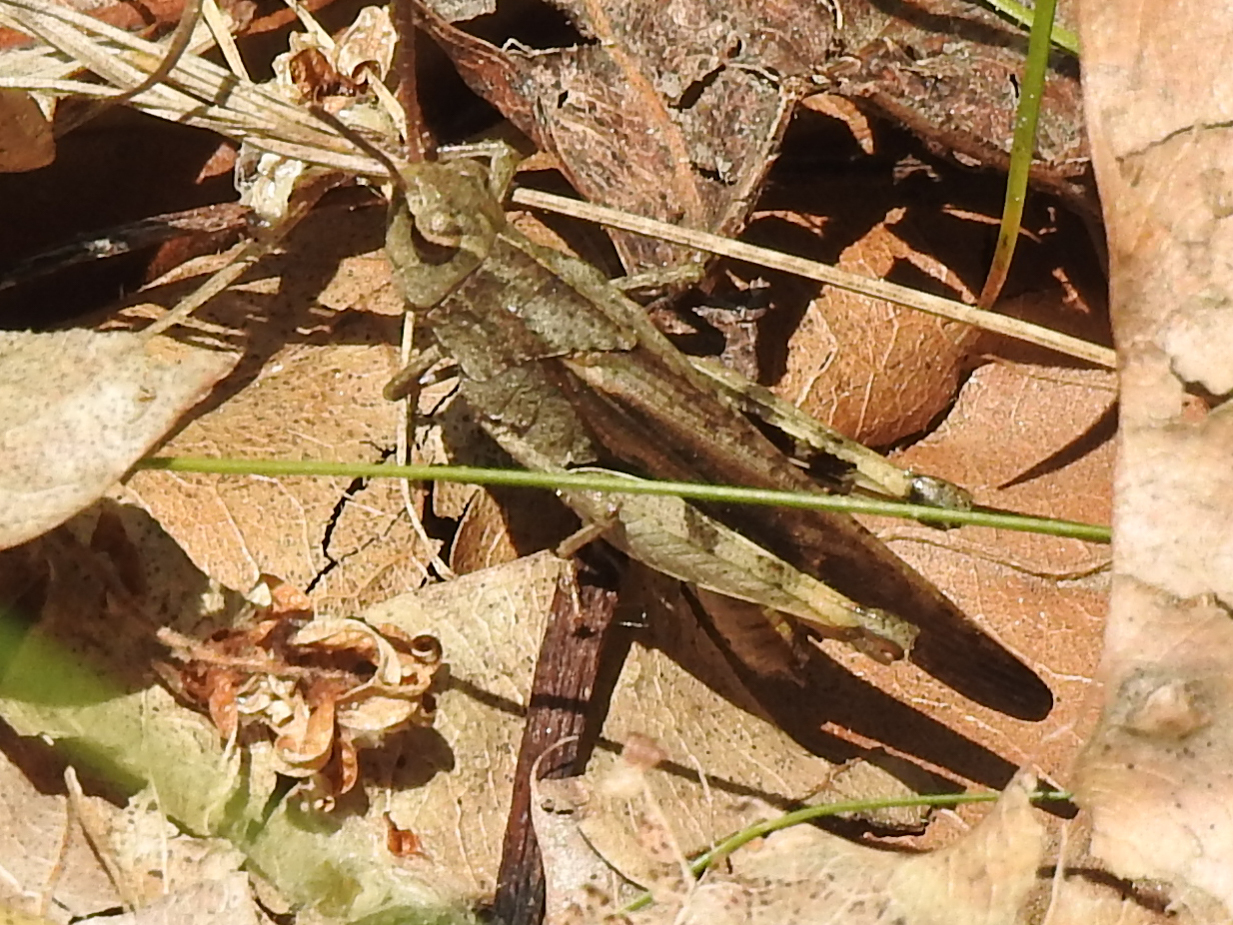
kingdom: Animalia
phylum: Arthropoda
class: Insecta
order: Orthoptera
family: Acrididae
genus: Chortophaga
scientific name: Chortophaga viridifasciata
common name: Green-striped grasshopper
